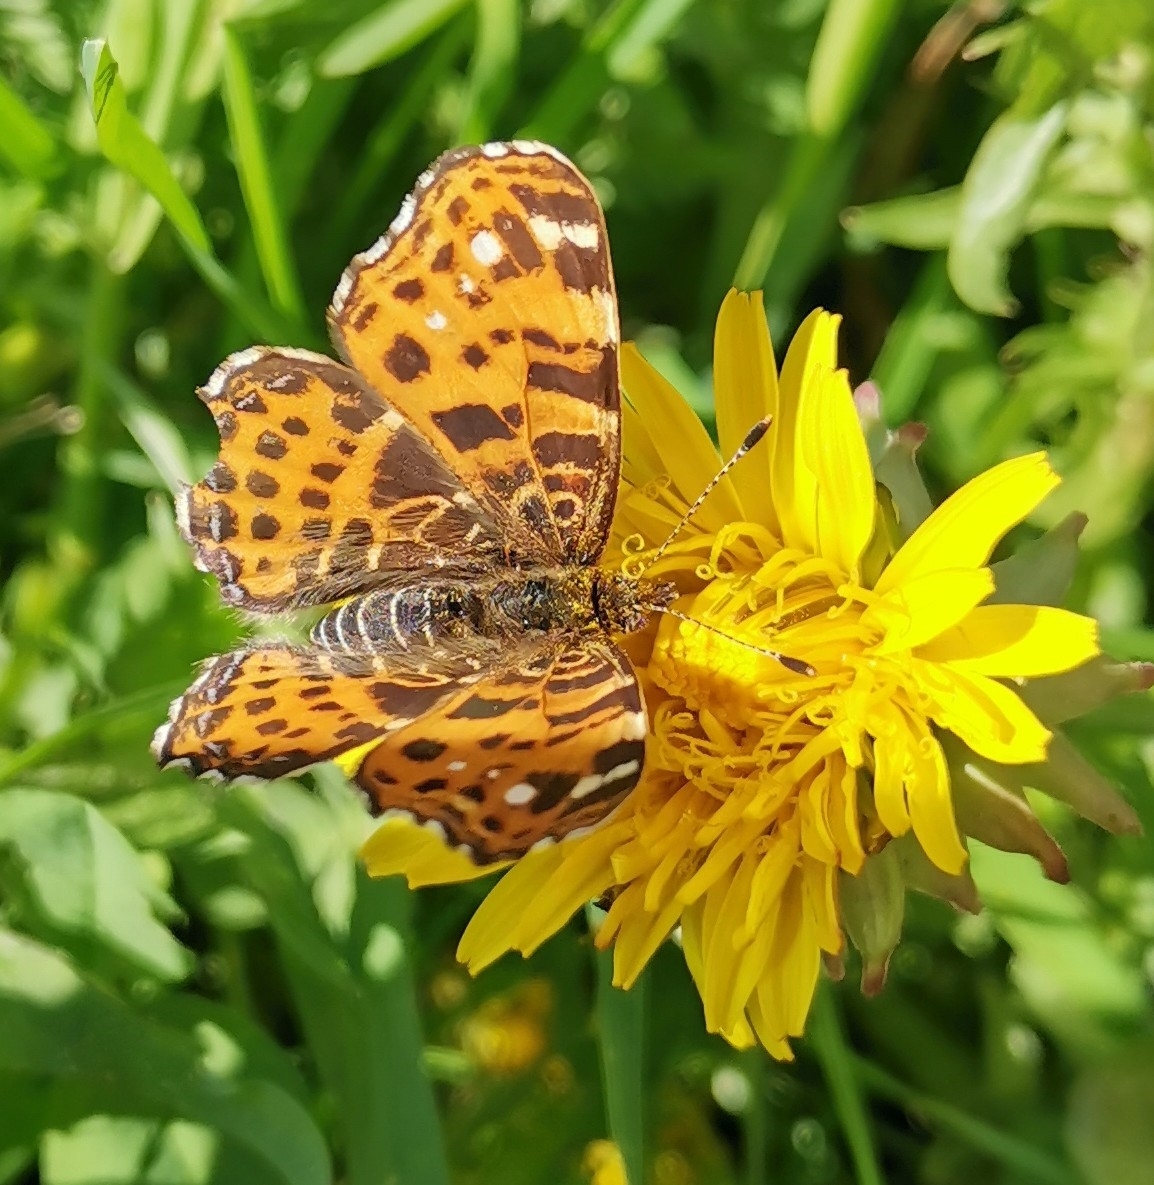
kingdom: Animalia
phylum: Arthropoda
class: Insecta
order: Lepidoptera
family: Nymphalidae
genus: Araschnia
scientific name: Araschnia levana
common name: Map butterfly
